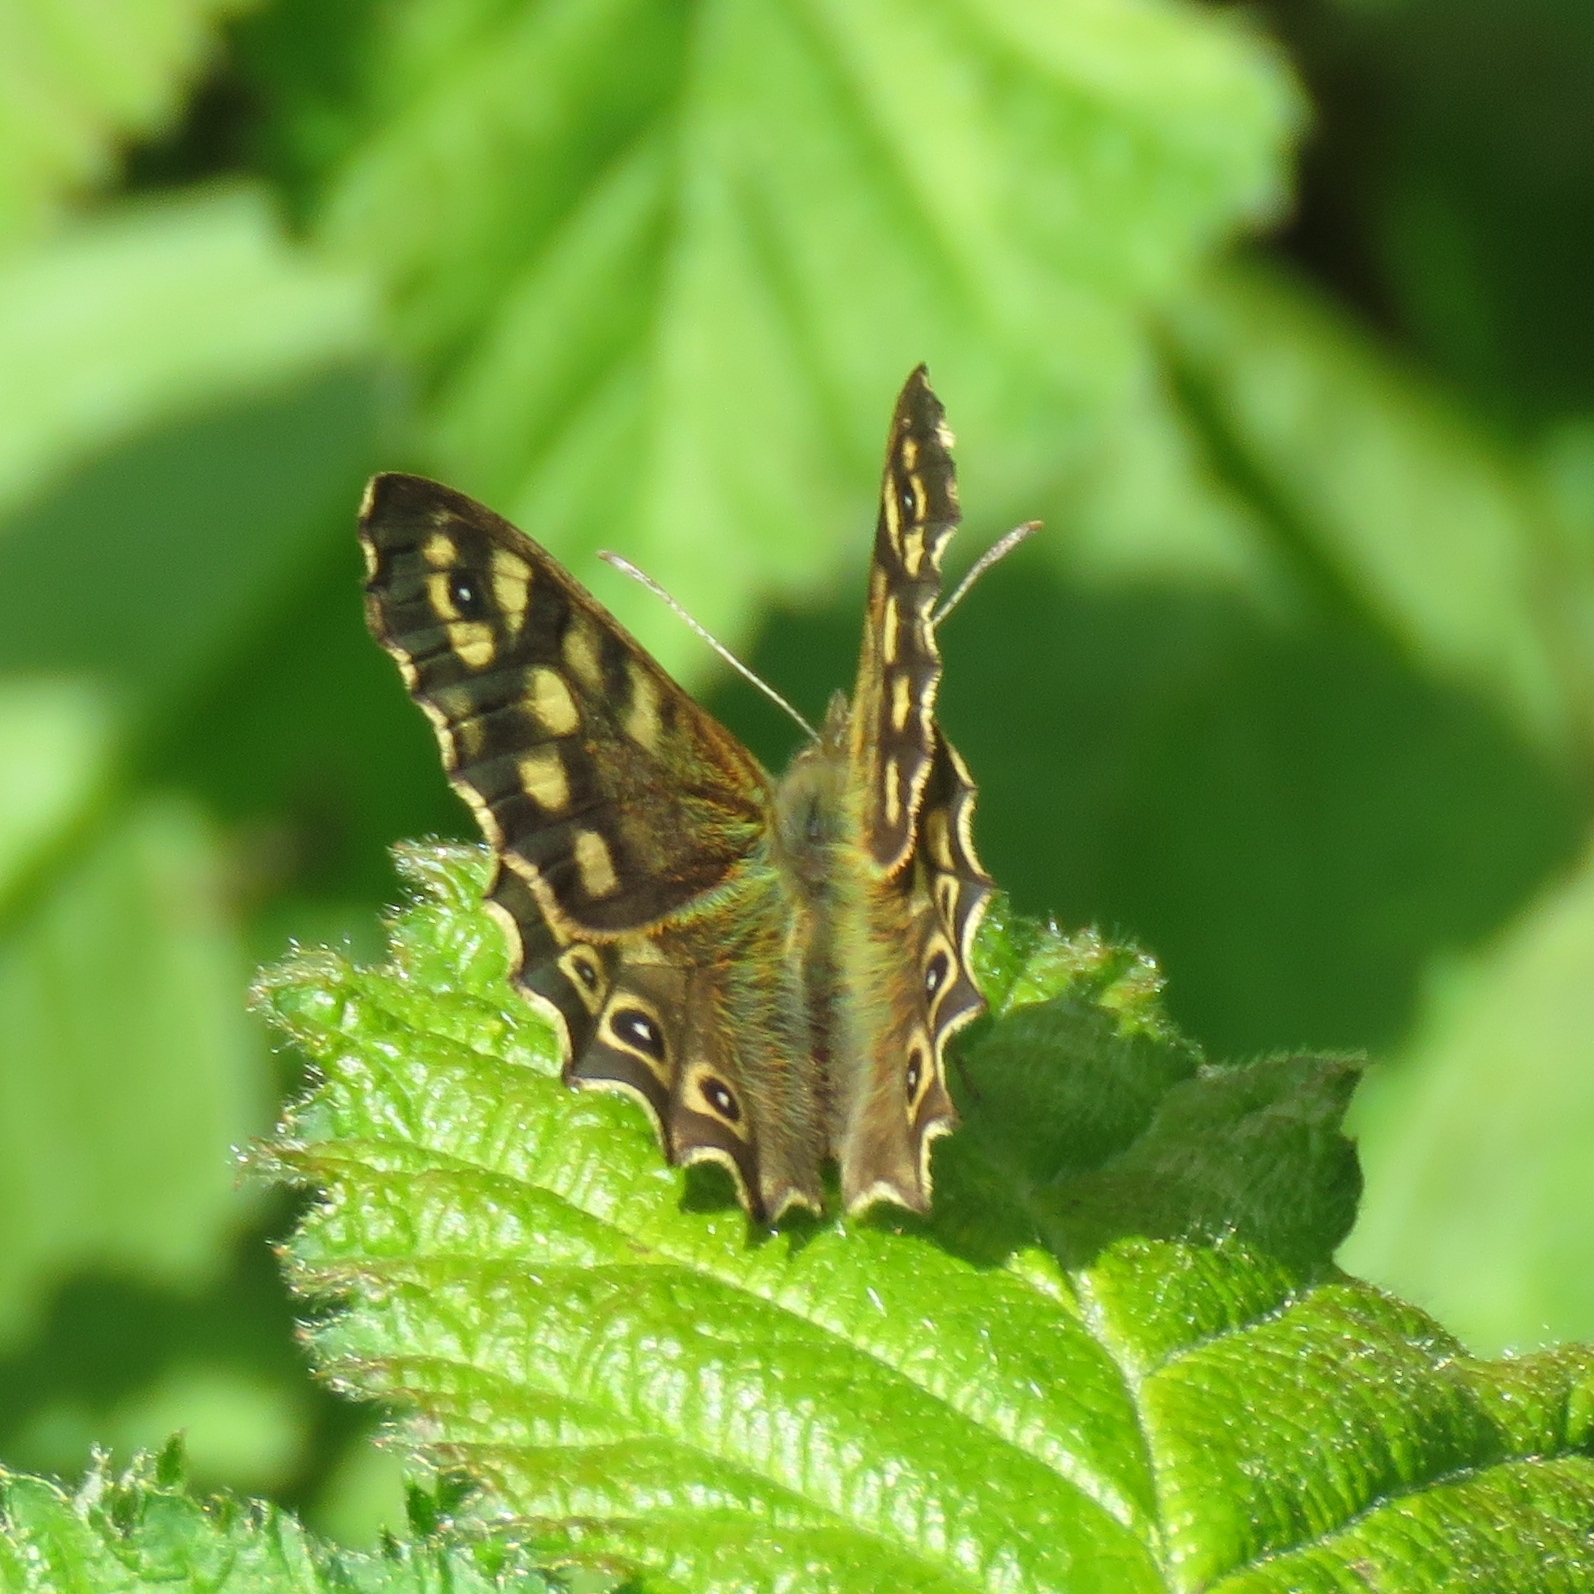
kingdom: Animalia
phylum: Arthropoda
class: Insecta
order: Lepidoptera
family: Nymphalidae
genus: Pararge
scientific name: Pararge aegeria
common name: Speckled wood
